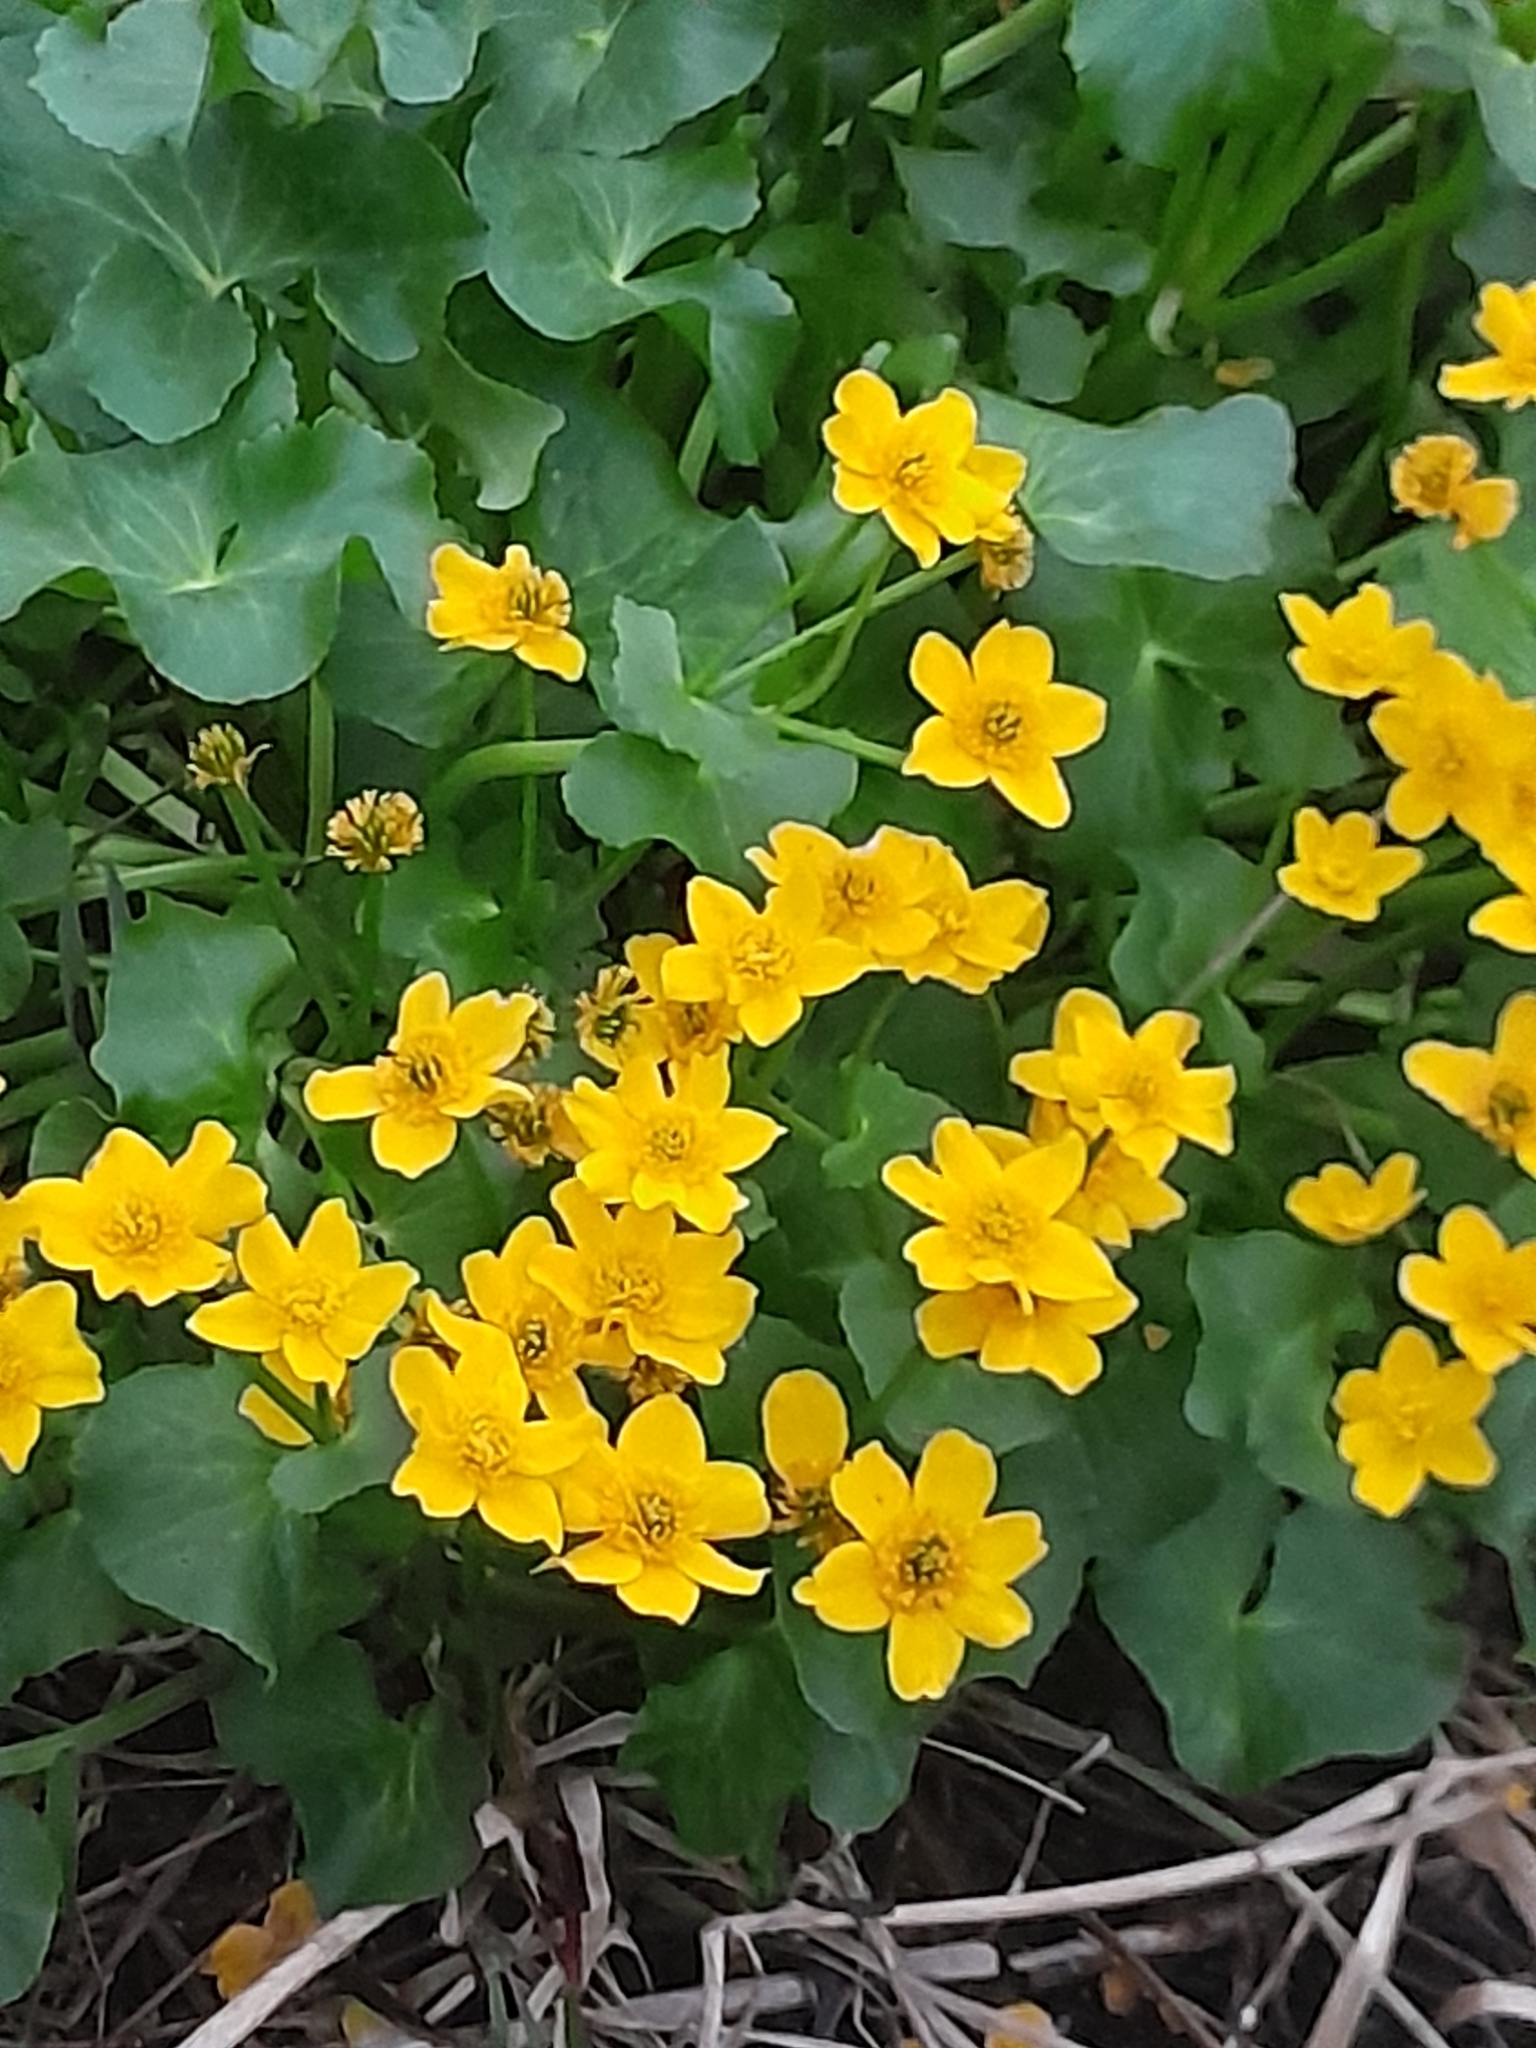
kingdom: Plantae
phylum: Tracheophyta
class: Magnoliopsida
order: Ranunculales
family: Ranunculaceae
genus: Caltha
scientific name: Caltha palustris
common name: Marsh marigold
